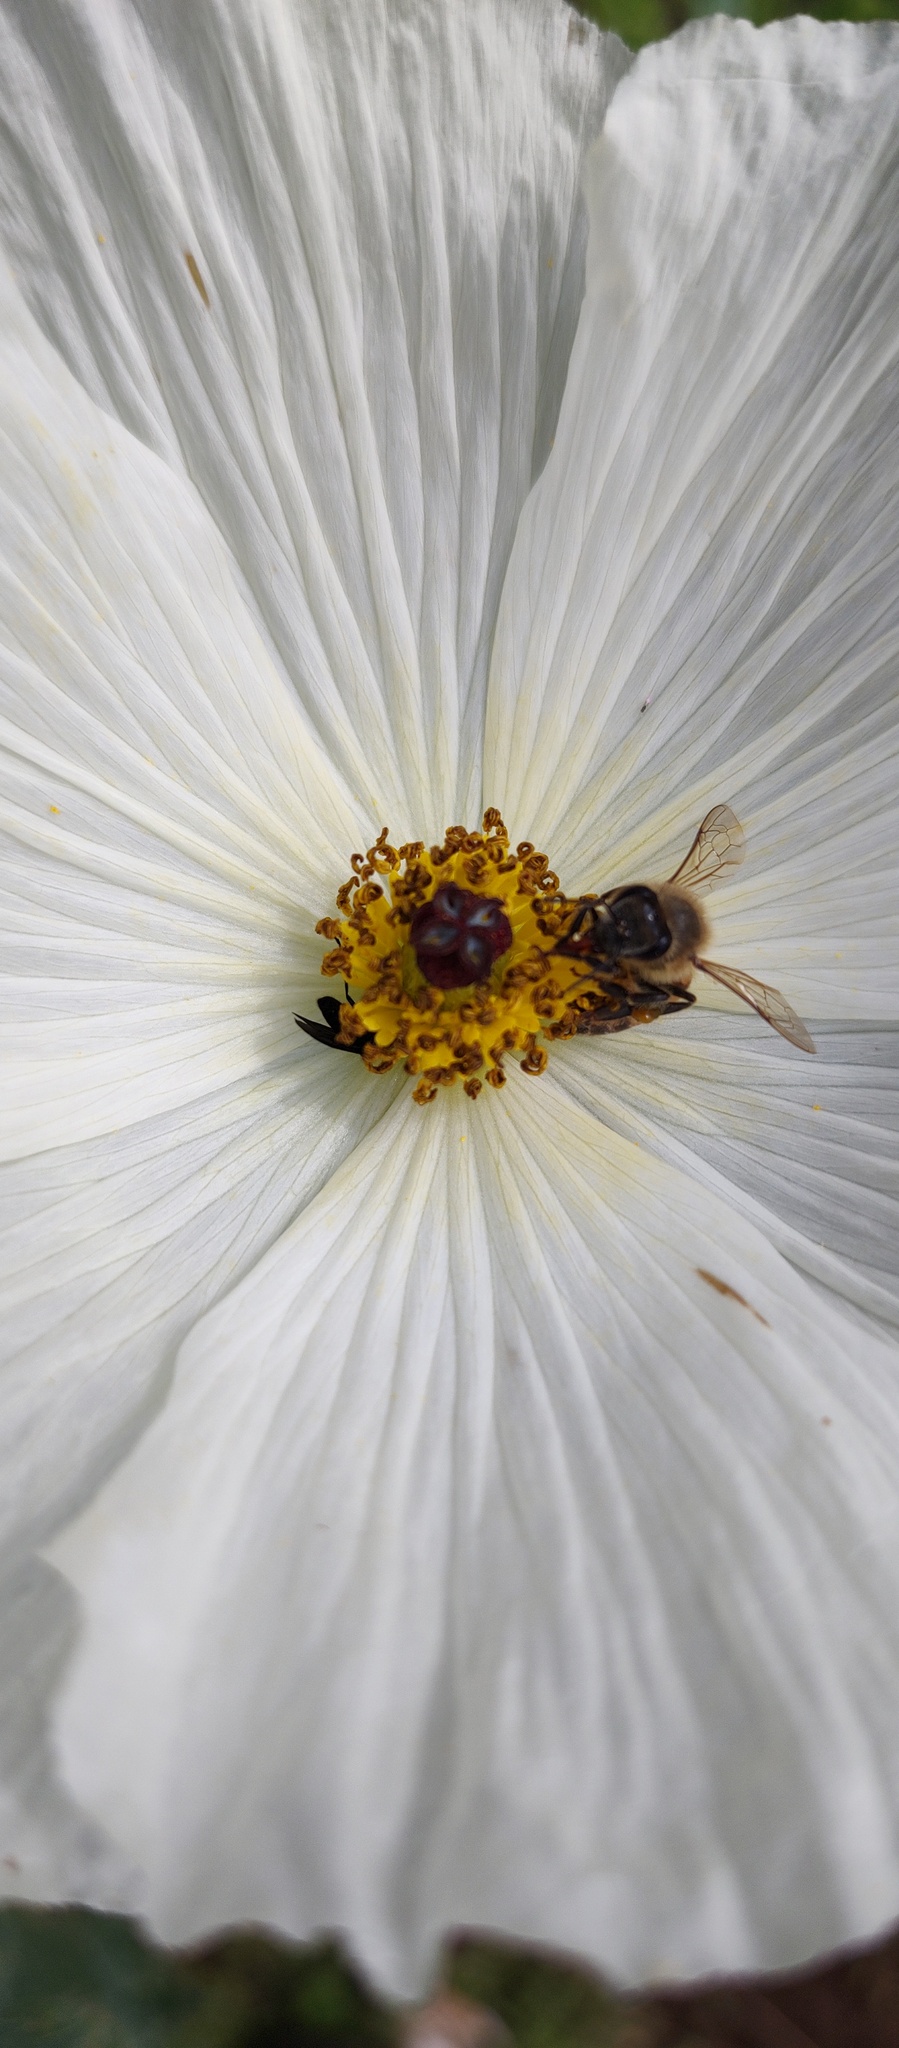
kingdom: Animalia
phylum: Arthropoda
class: Insecta
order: Hymenoptera
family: Apidae
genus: Apis
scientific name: Apis mellifera
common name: Honey bee
